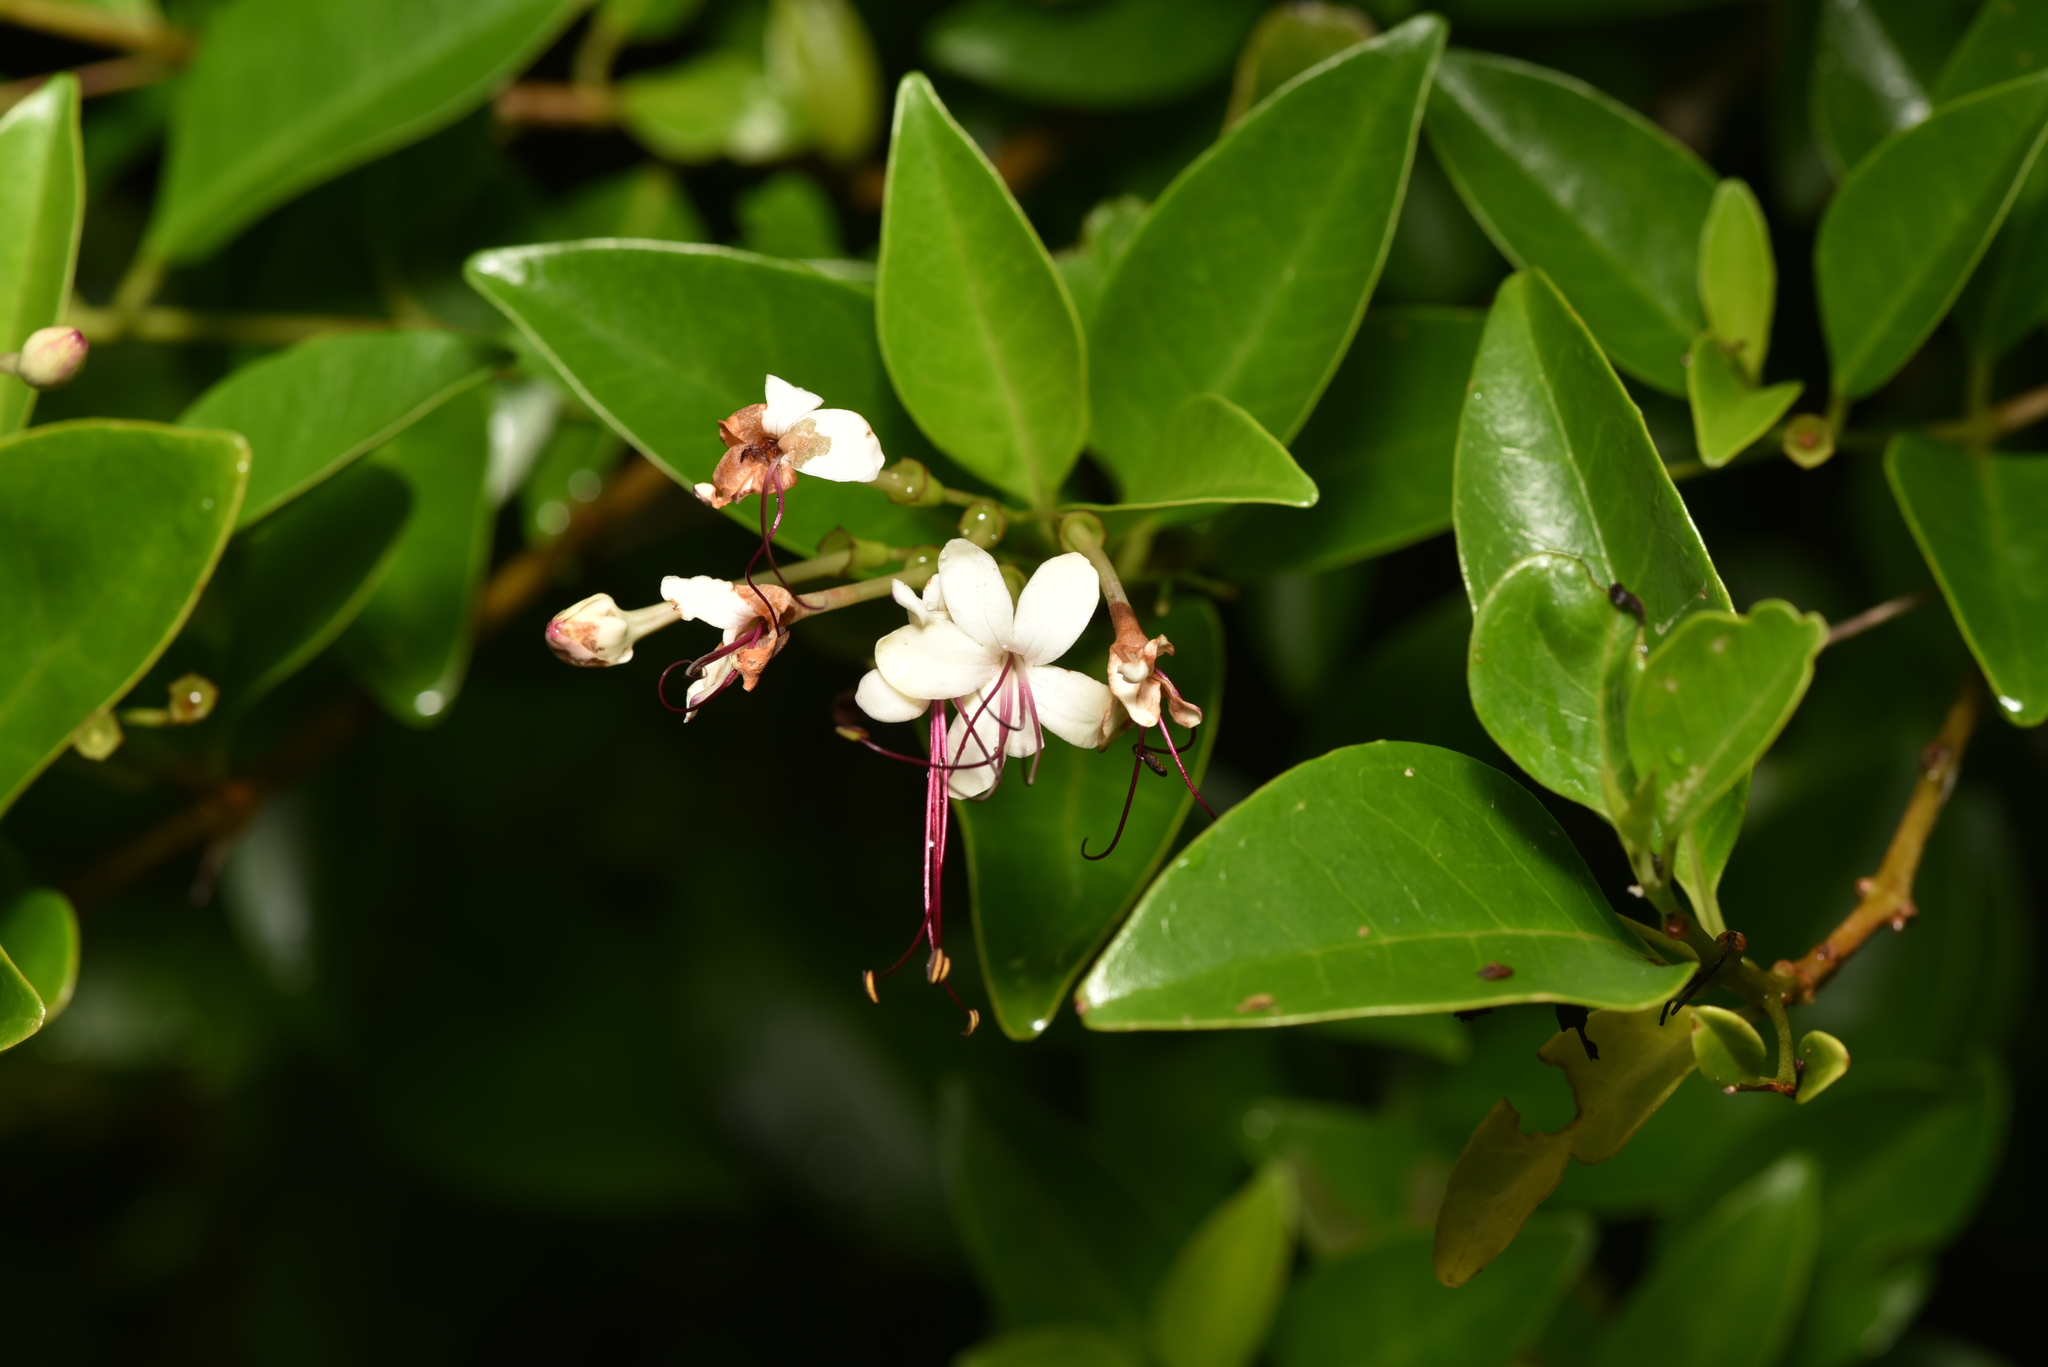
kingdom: Plantae
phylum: Tracheophyta
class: Magnoliopsida
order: Lamiales
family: Lamiaceae
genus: Volkameria
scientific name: Volkameria inermis
